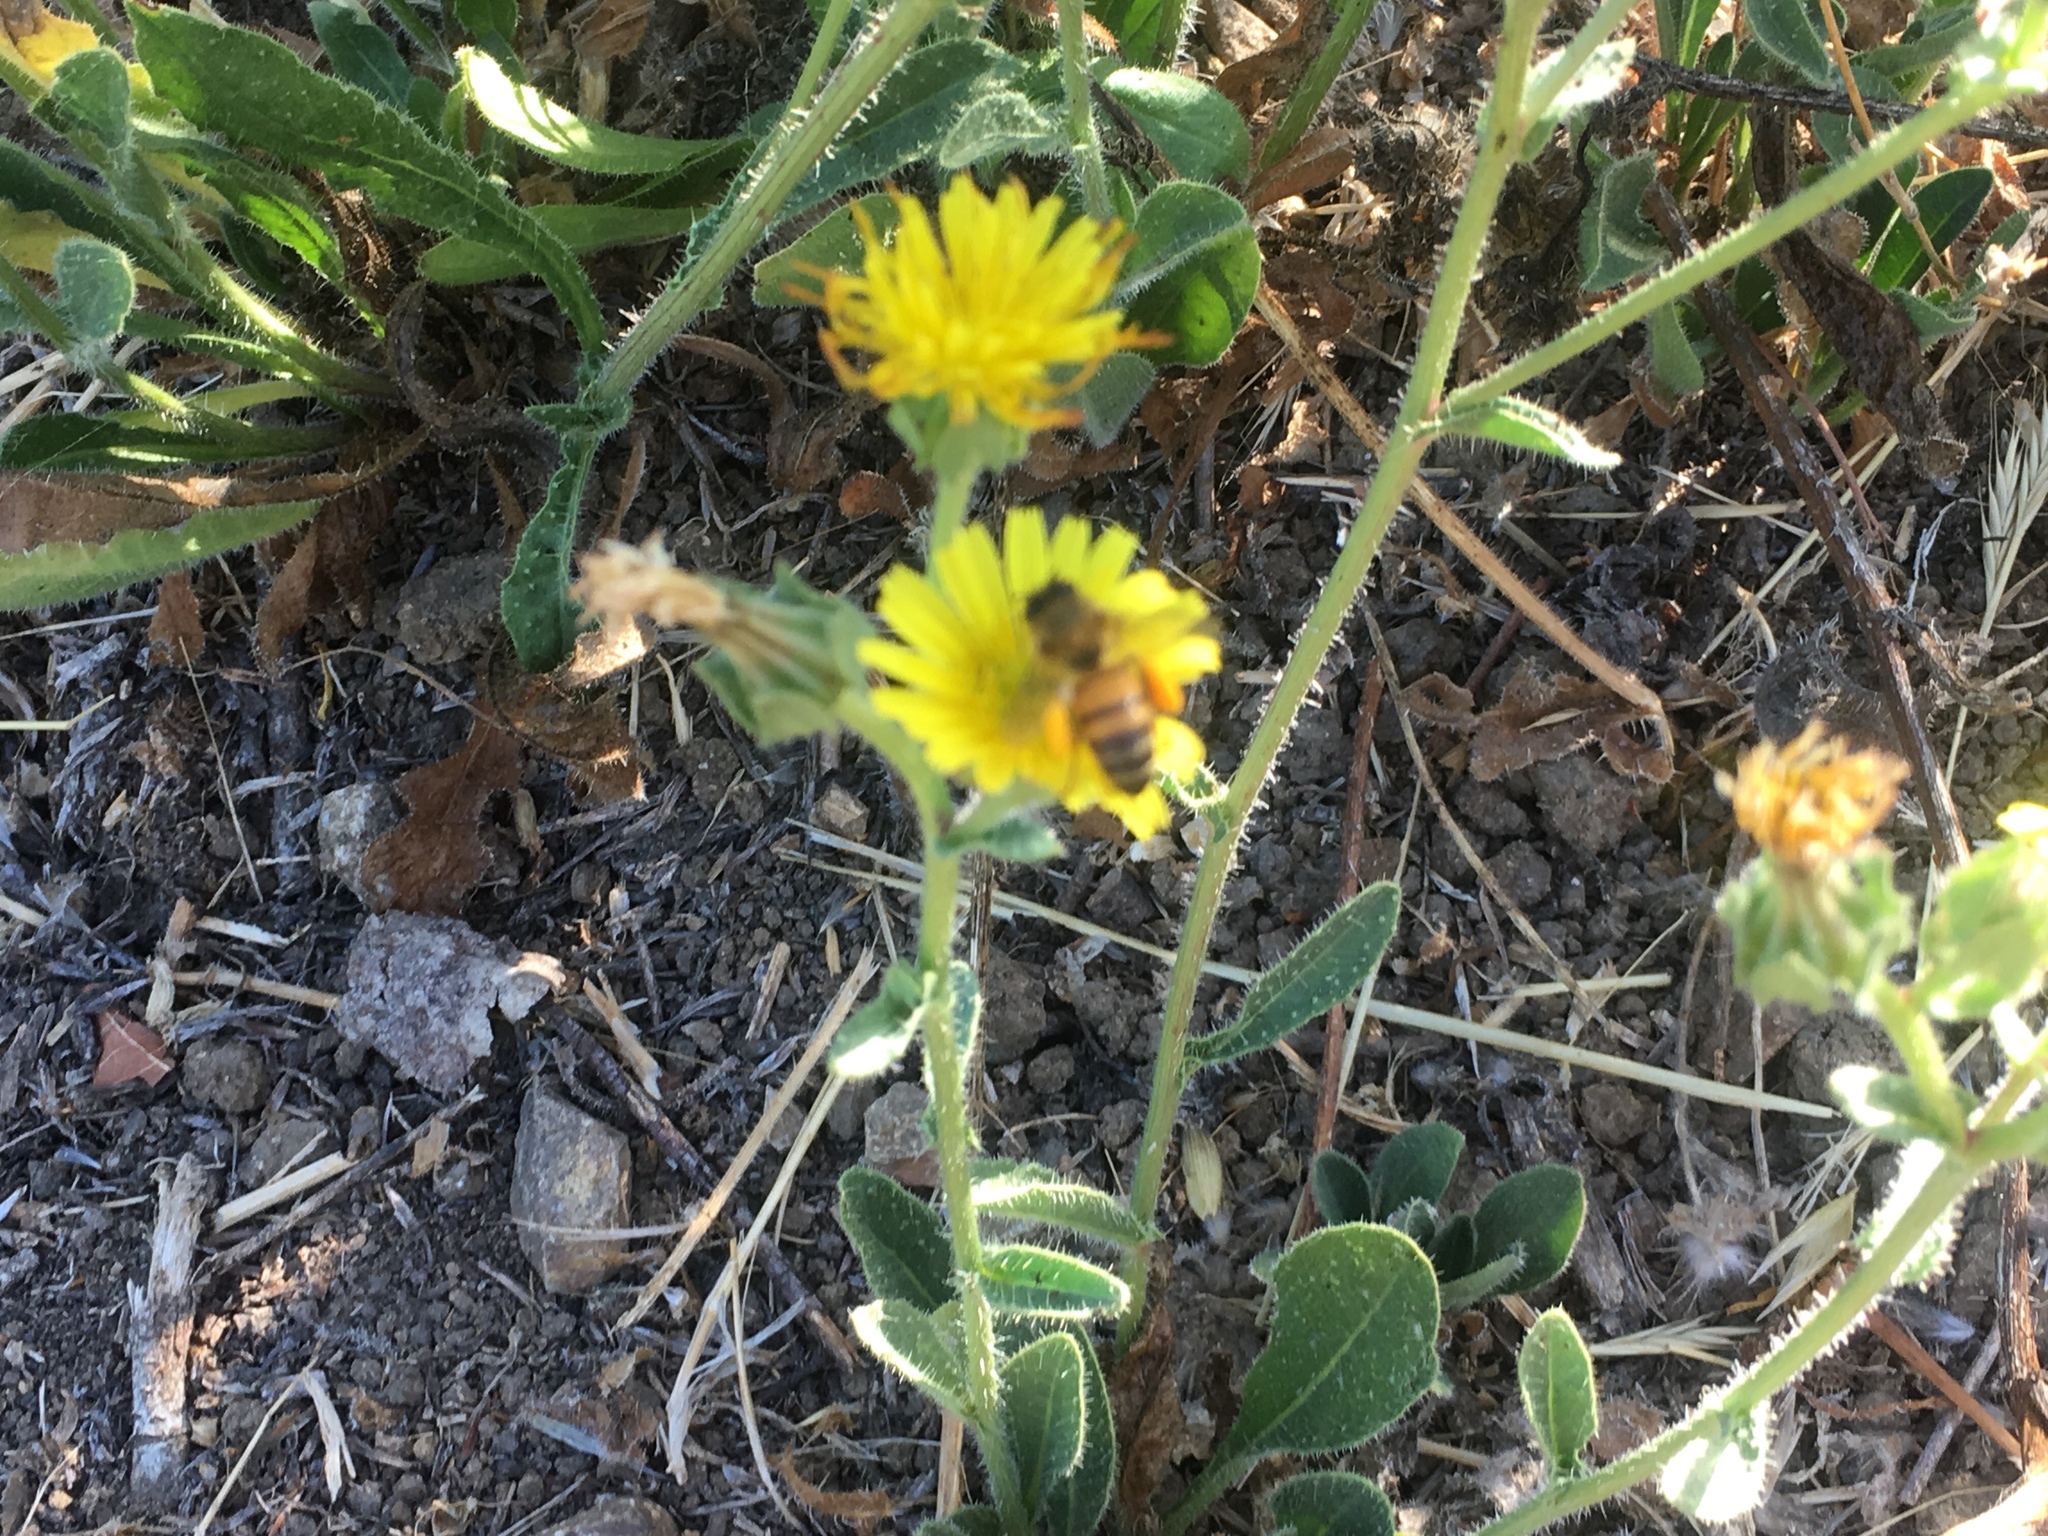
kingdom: Animalia
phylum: Arthropoda
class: Insecta
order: Hymenoptera
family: Apidae
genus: Apis
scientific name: Apis mellifera
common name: Honey bee
